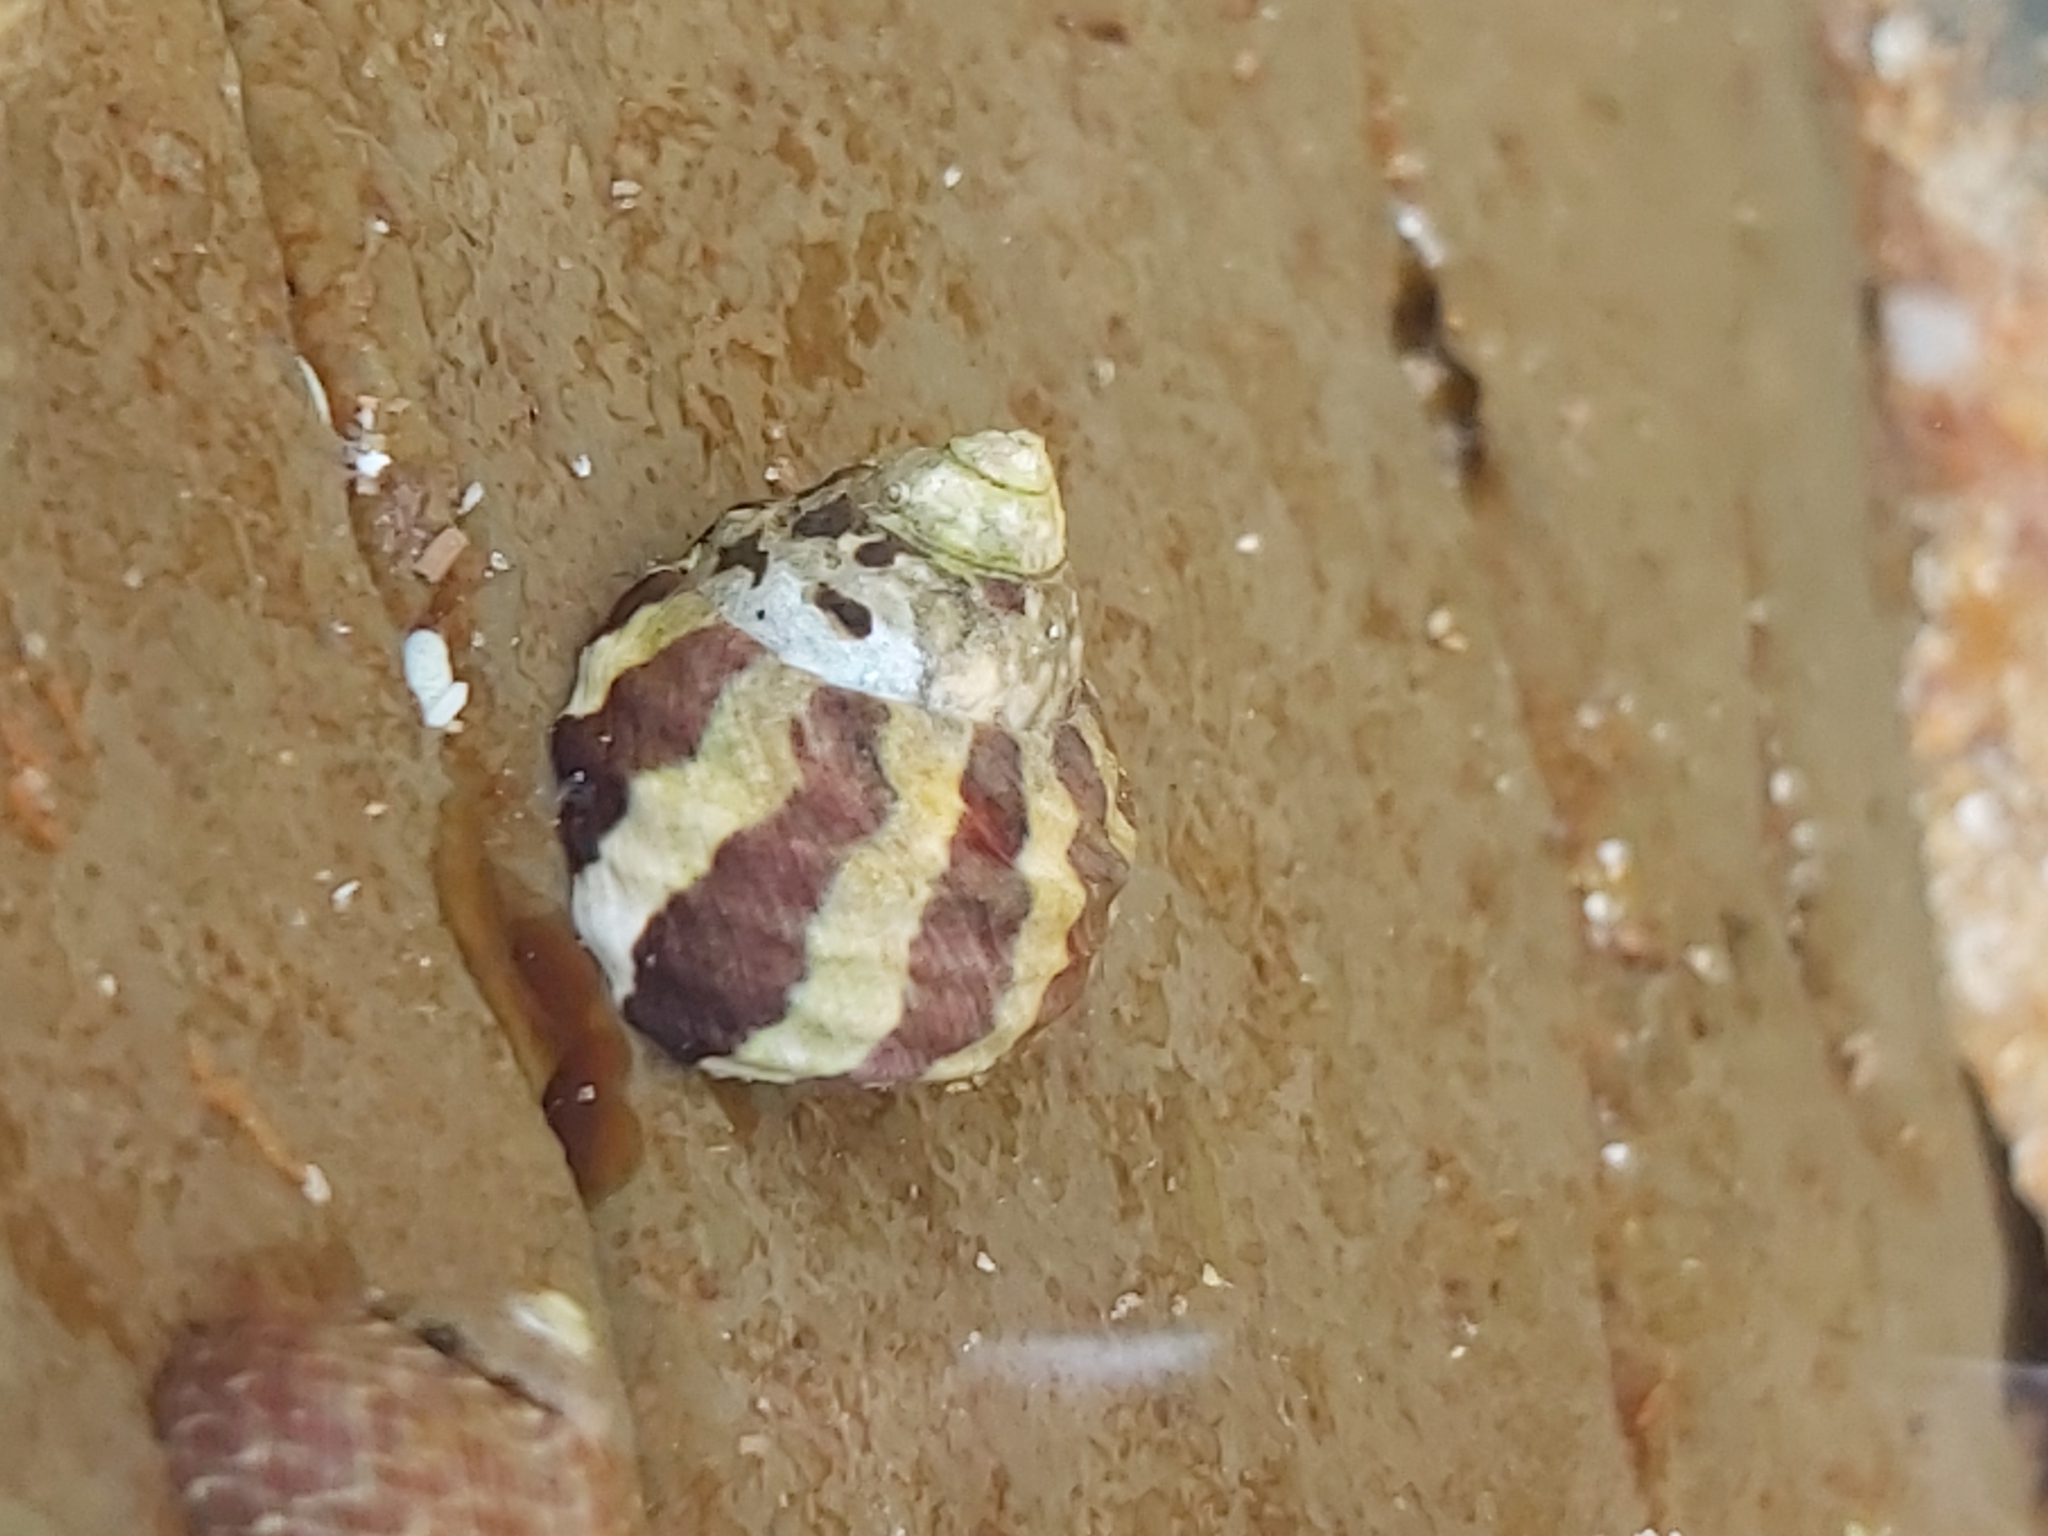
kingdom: Animalia
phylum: Mollusca
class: Gastropoda
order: Trochida
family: Trochidae
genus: Austrocochlea
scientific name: Austrocochlea porcata
